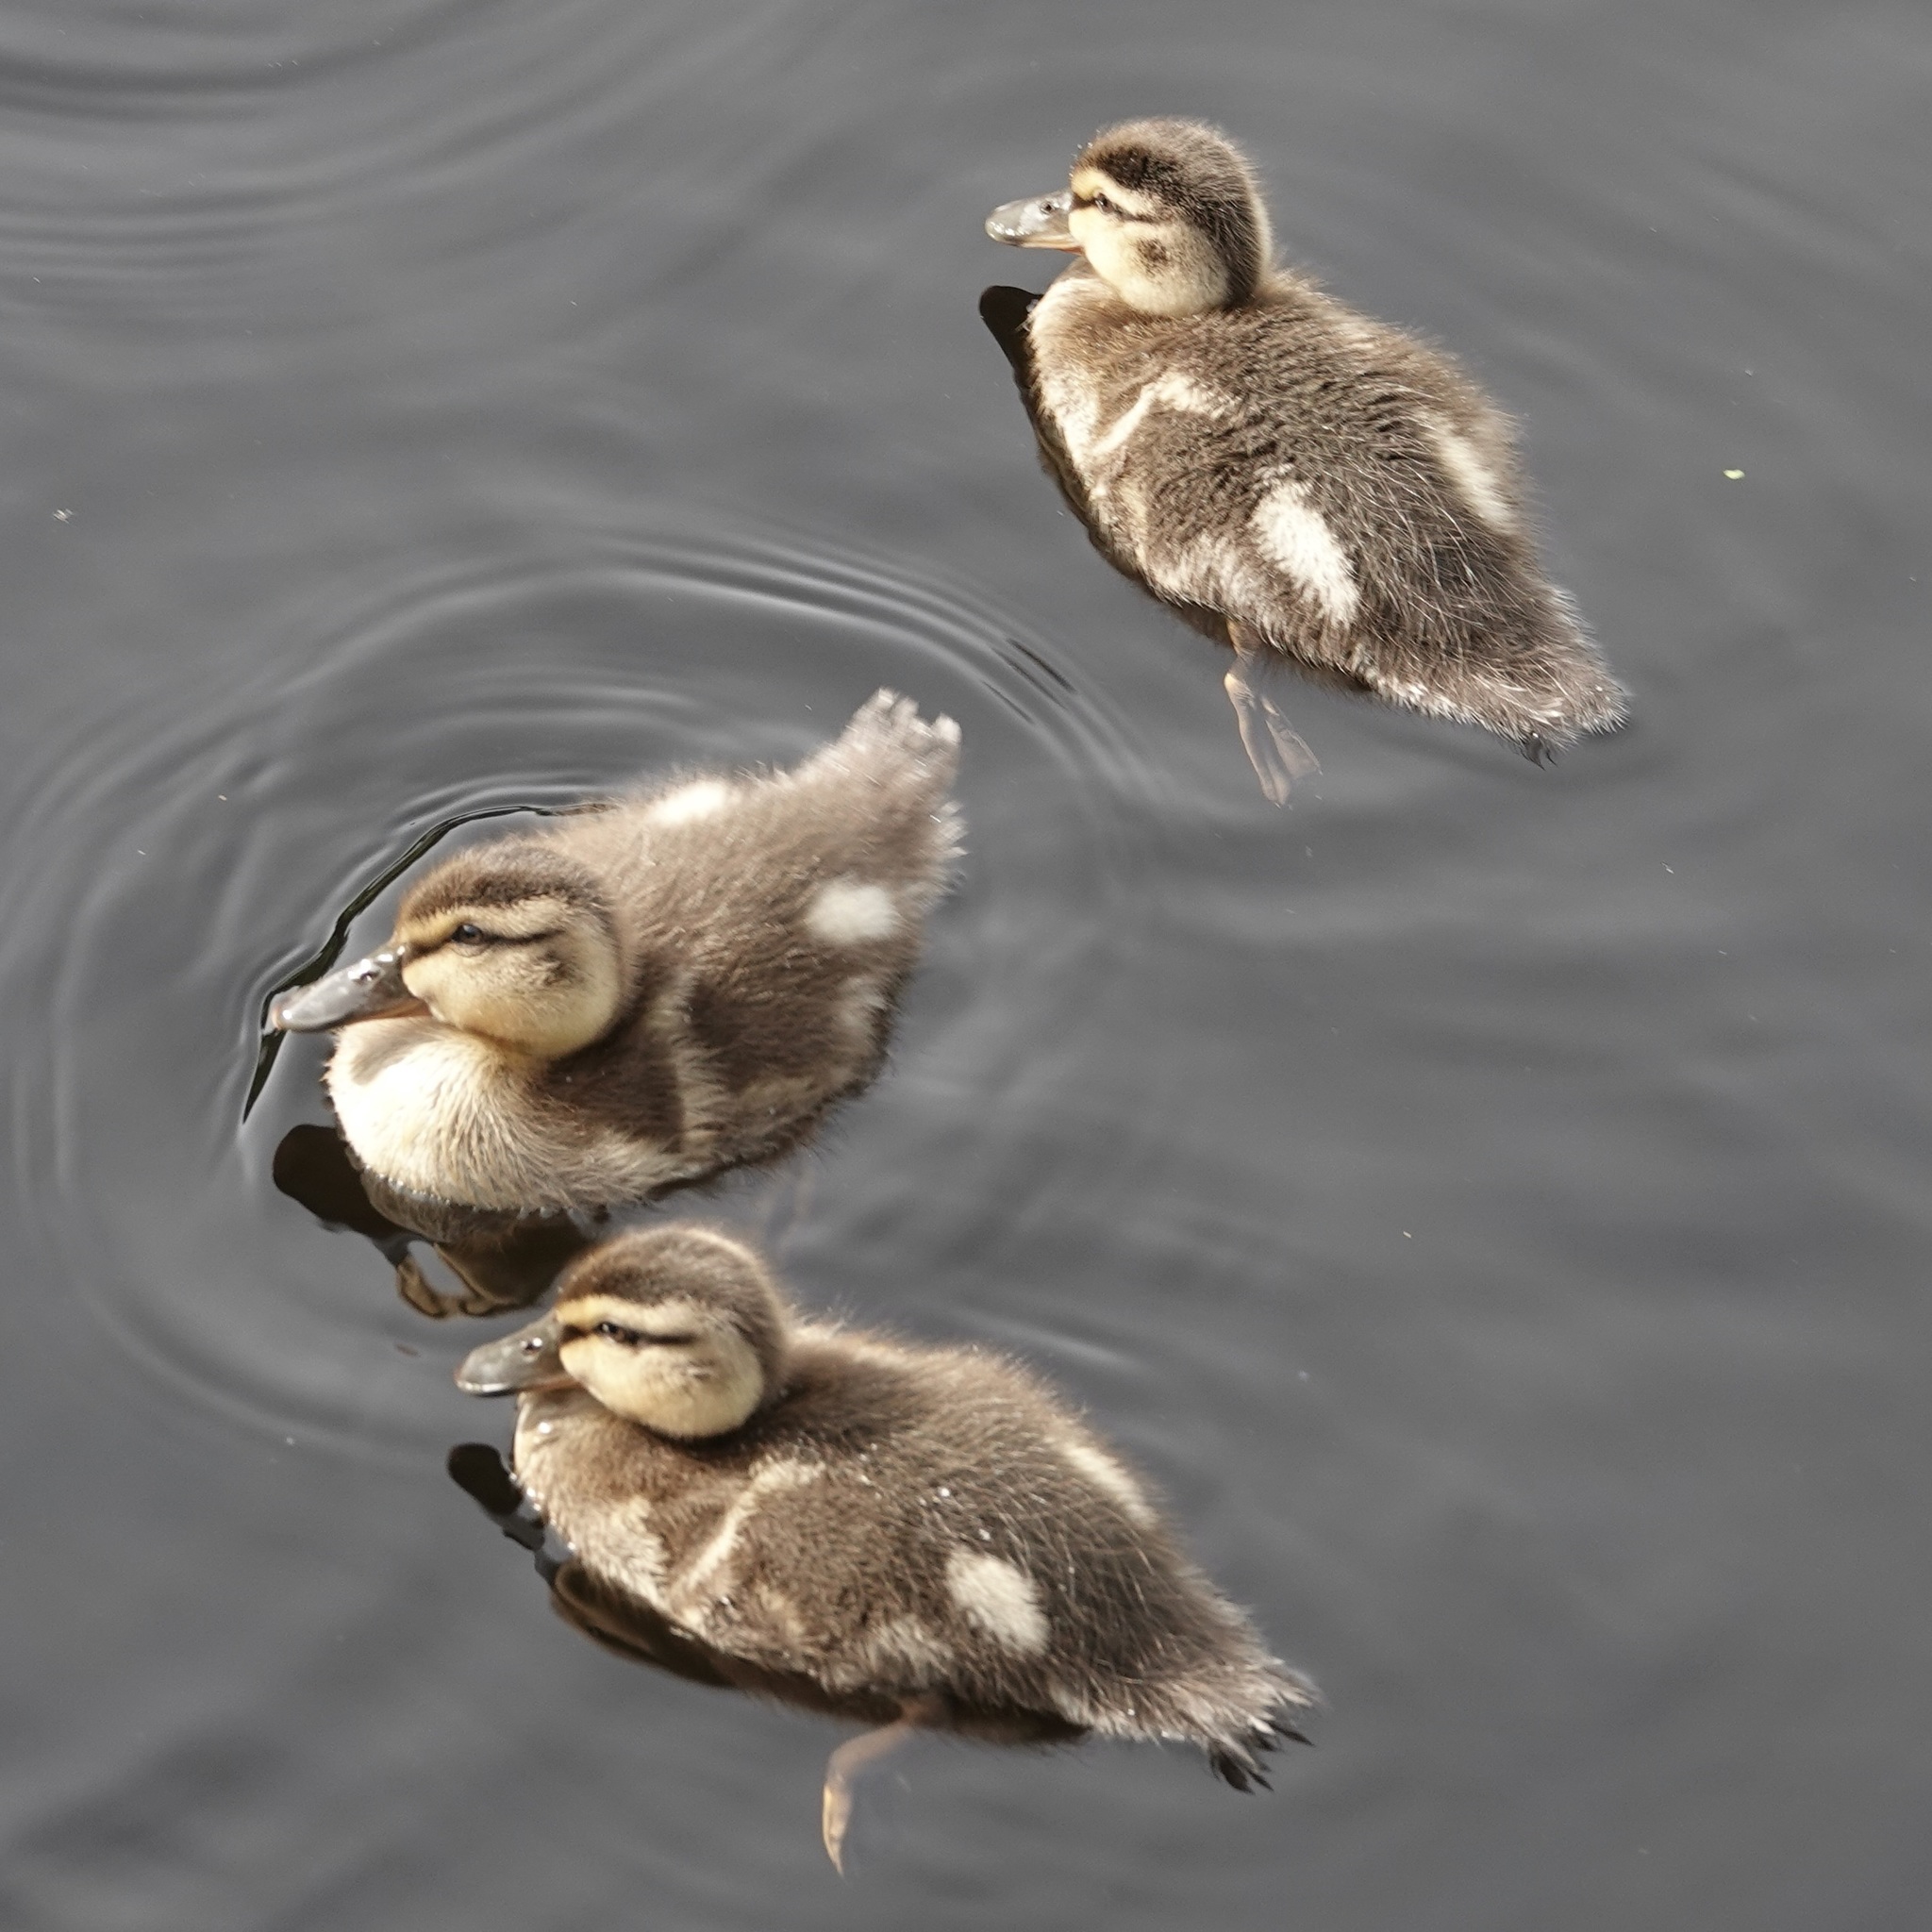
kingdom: Animalia
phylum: Chordata
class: Aves
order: Anseriformes
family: Anatidae
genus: Anas
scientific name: Anas platyrhynchos
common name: Mallard
